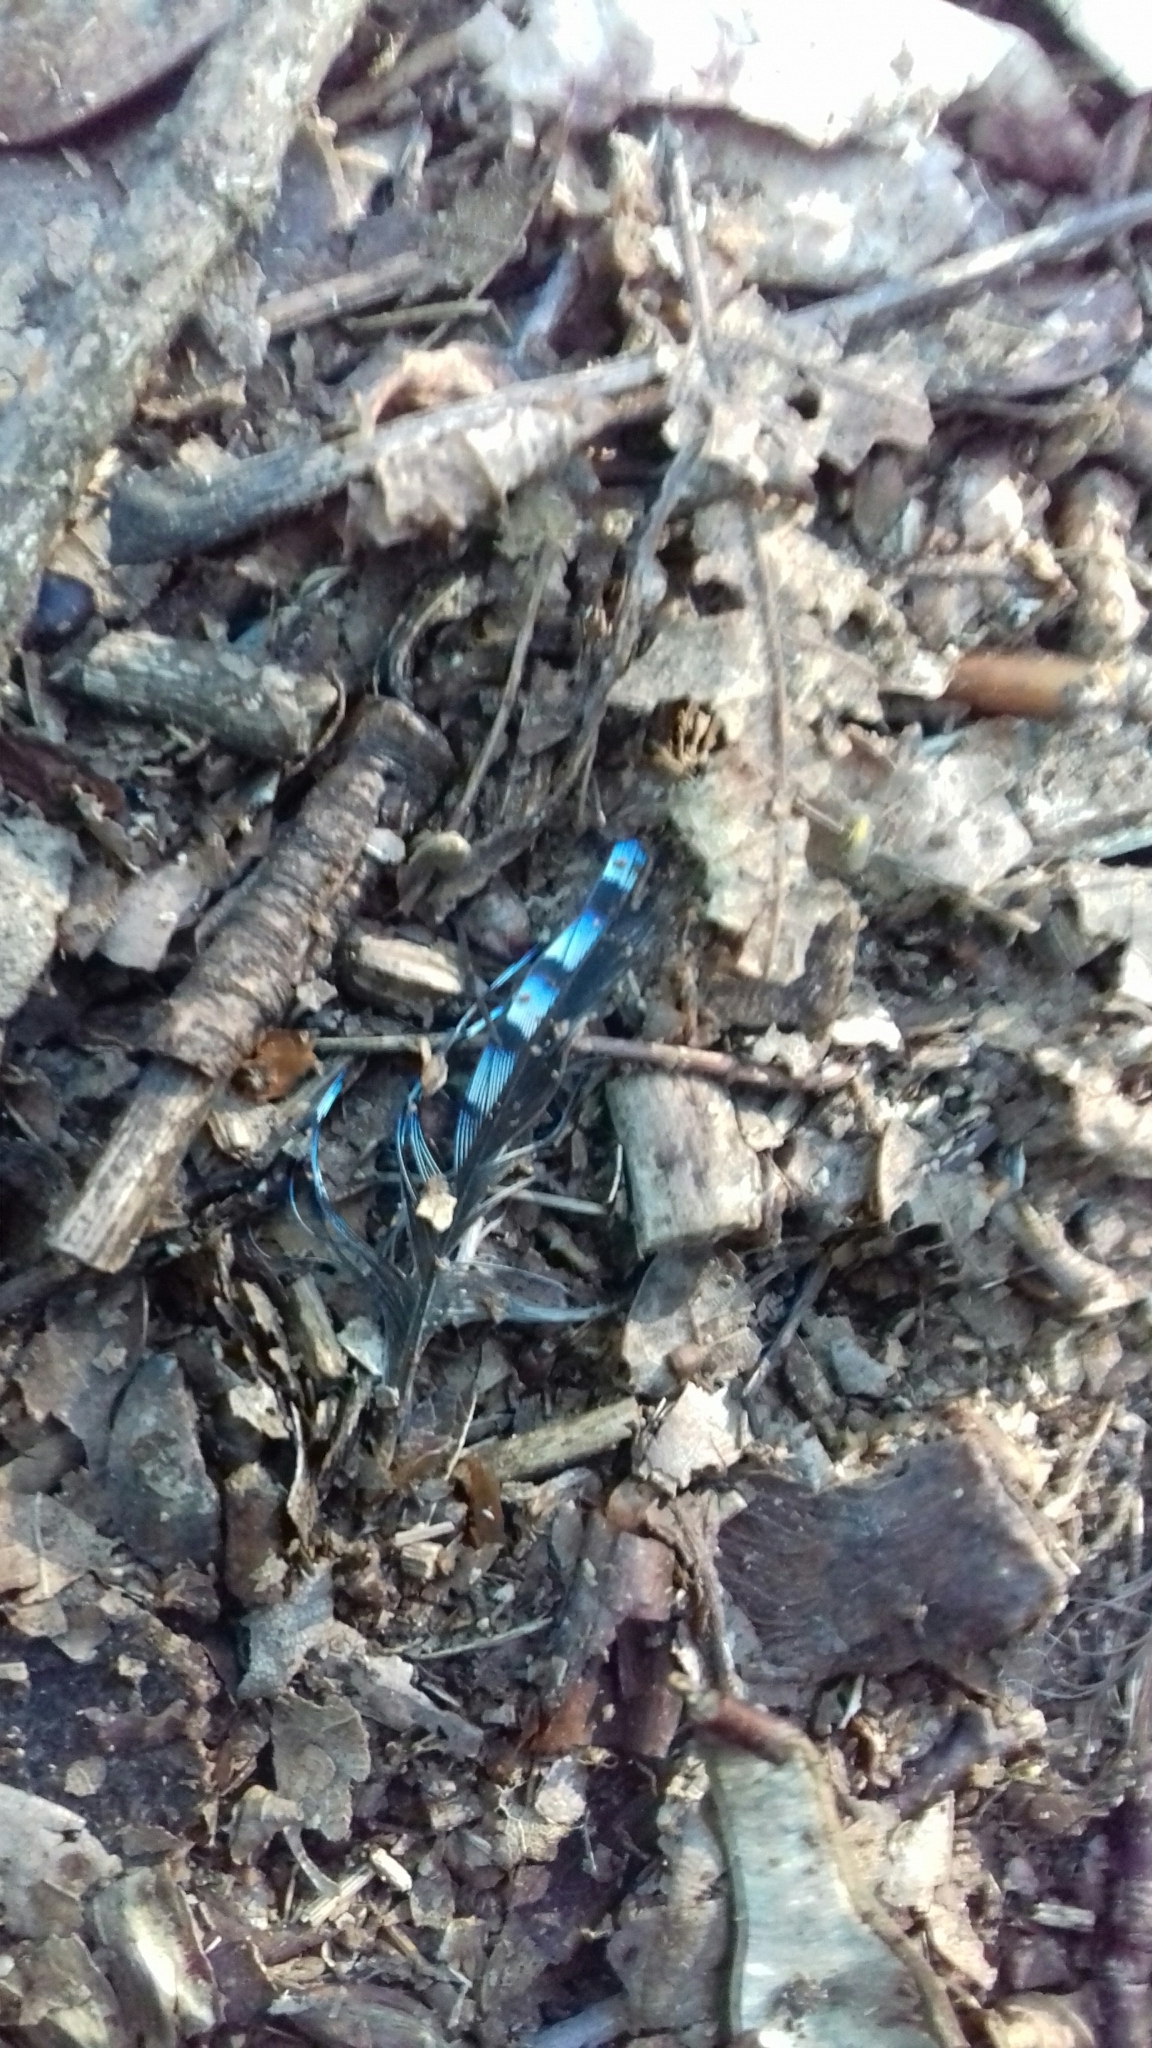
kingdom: Animalia
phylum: Chordata
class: Aves
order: Passeriformes
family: Corvidae
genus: Garrulus
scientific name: Garrulus glandarius
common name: Eurasian jay
